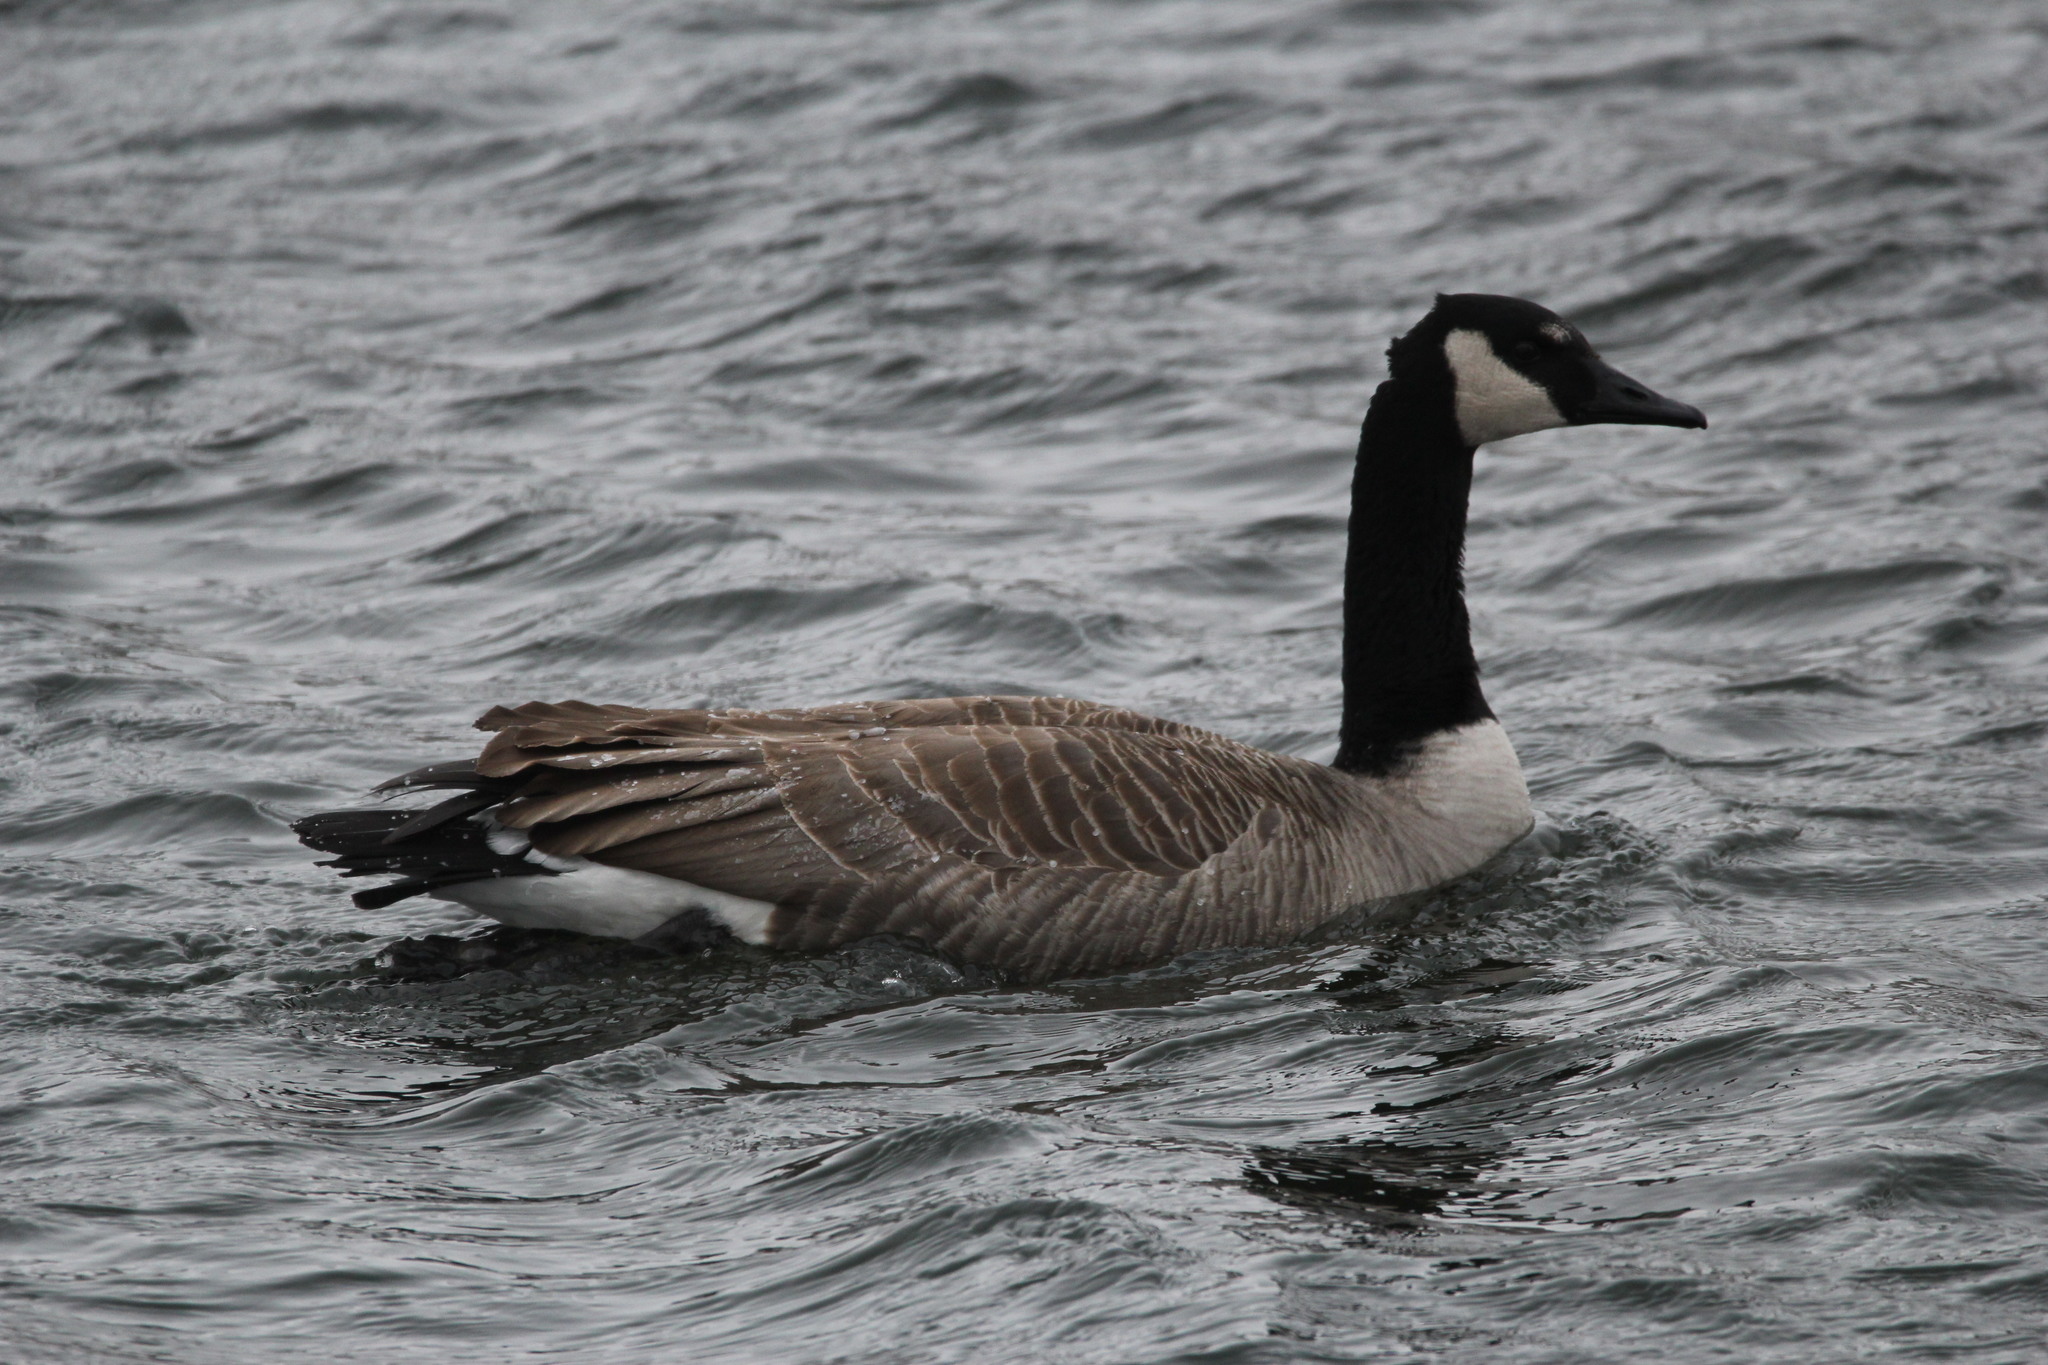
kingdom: Animalia
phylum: Chordata
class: Aves
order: Anseriformes
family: Anatidae
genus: Branta
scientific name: Branta canadensis
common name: Canada goose
